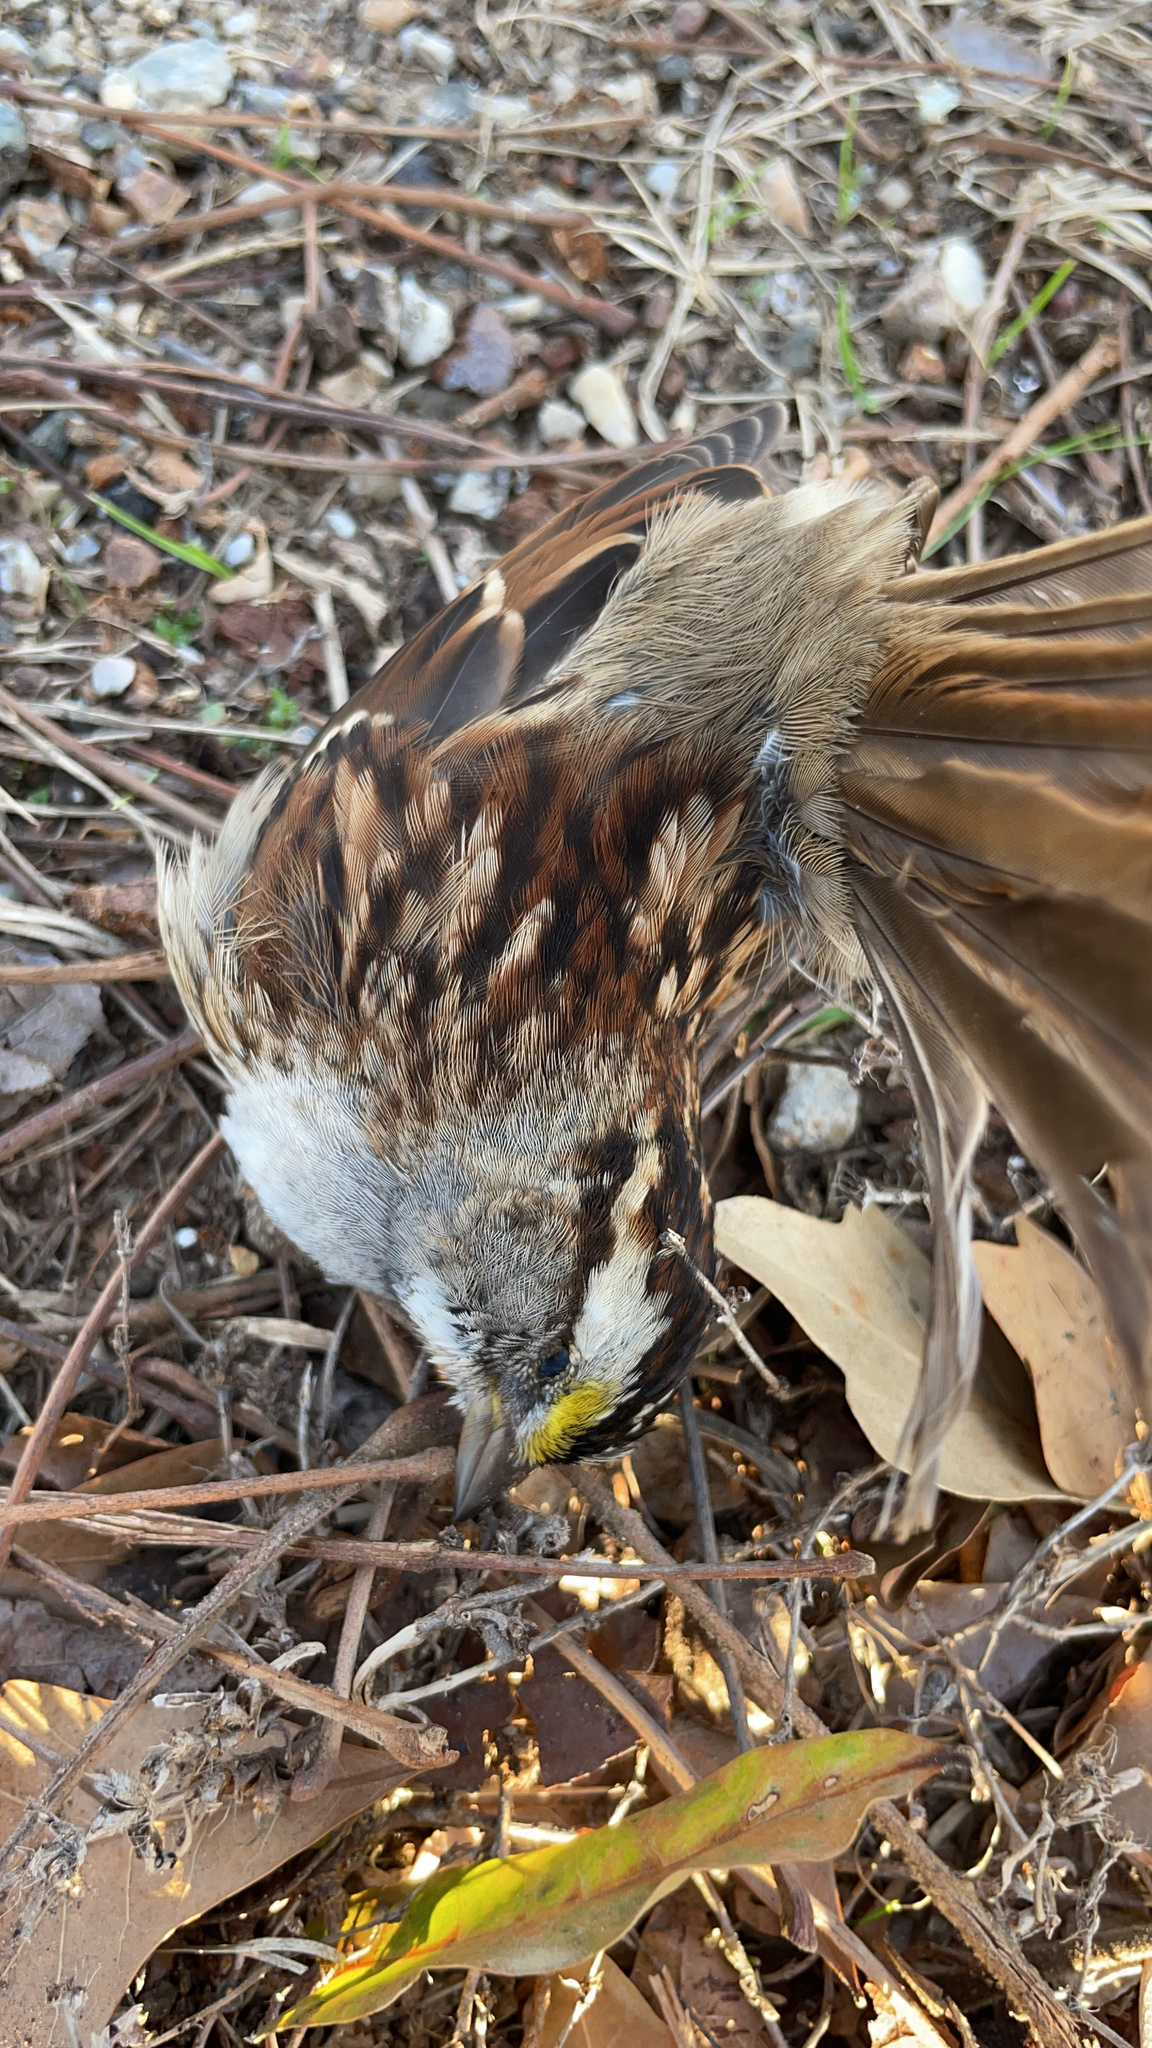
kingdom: Animalia
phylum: Chordata
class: Aves
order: Passeriformes
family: Passerellidae
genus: Zonotrichia
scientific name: Zonotrichia albicollis
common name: White-throated sparrow
